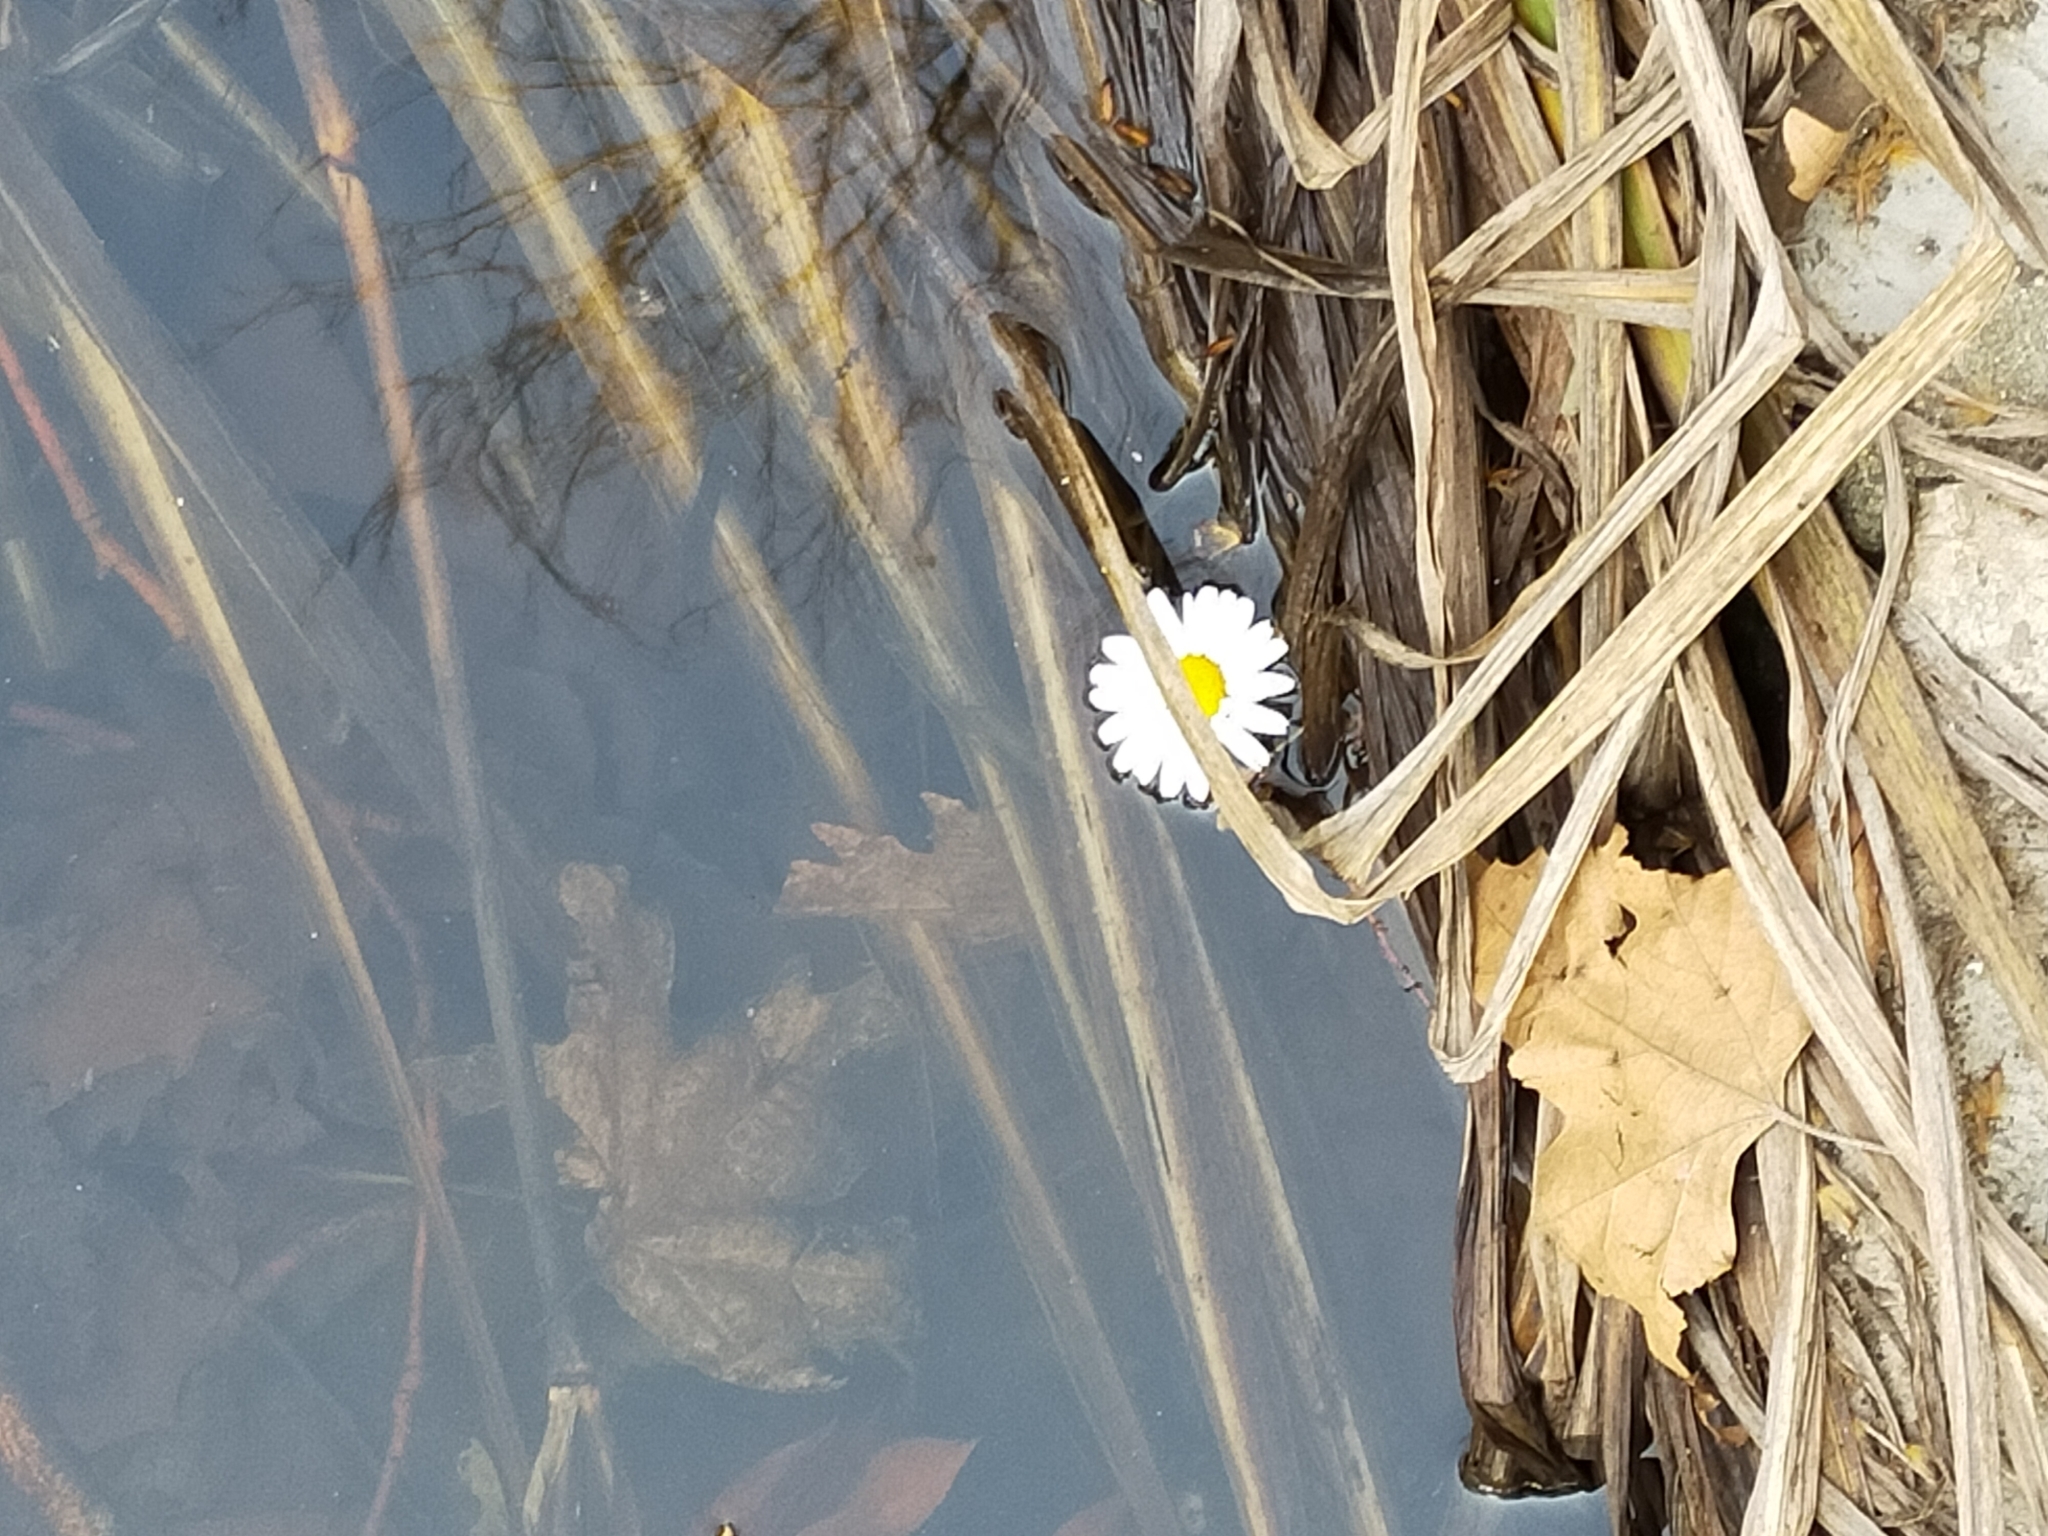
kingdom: Plantae
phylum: Tracheophyta
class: Magnoliopsida
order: Asterales
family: Asteraceae
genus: Bellis
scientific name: Bellis perennis
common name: Lawndaisy
